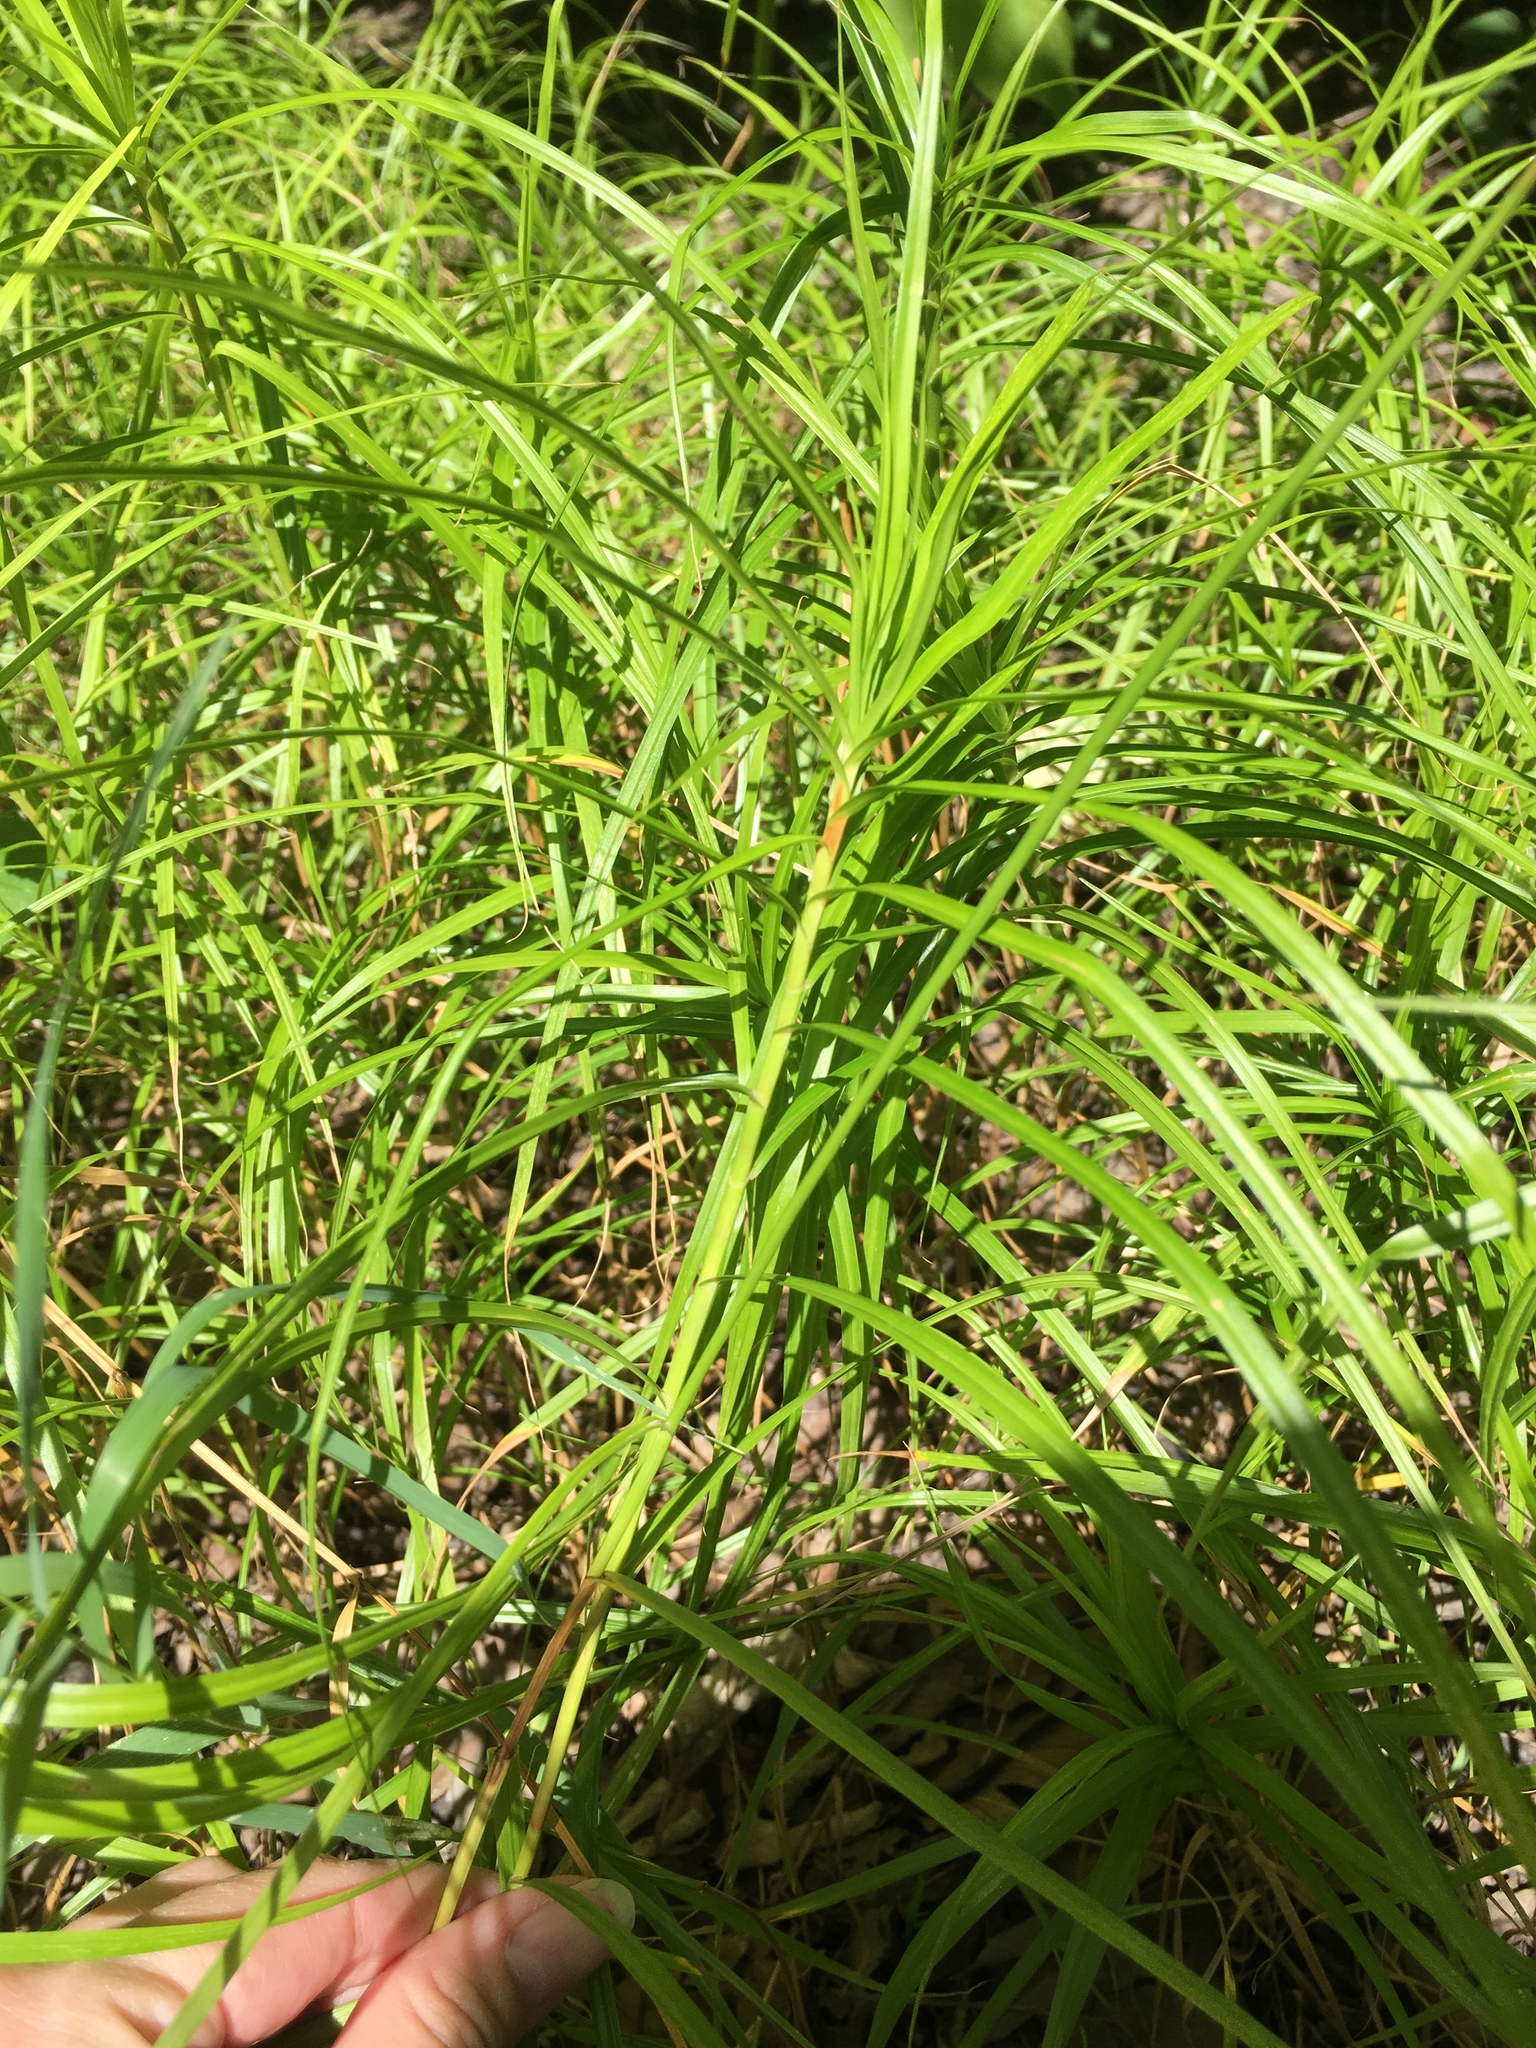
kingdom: Plantae
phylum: Tracheophyta
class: Liliopsida
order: Poales
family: Cyperaceae
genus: Carex
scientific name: Carex muskingumensis
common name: Muskingum sedge
